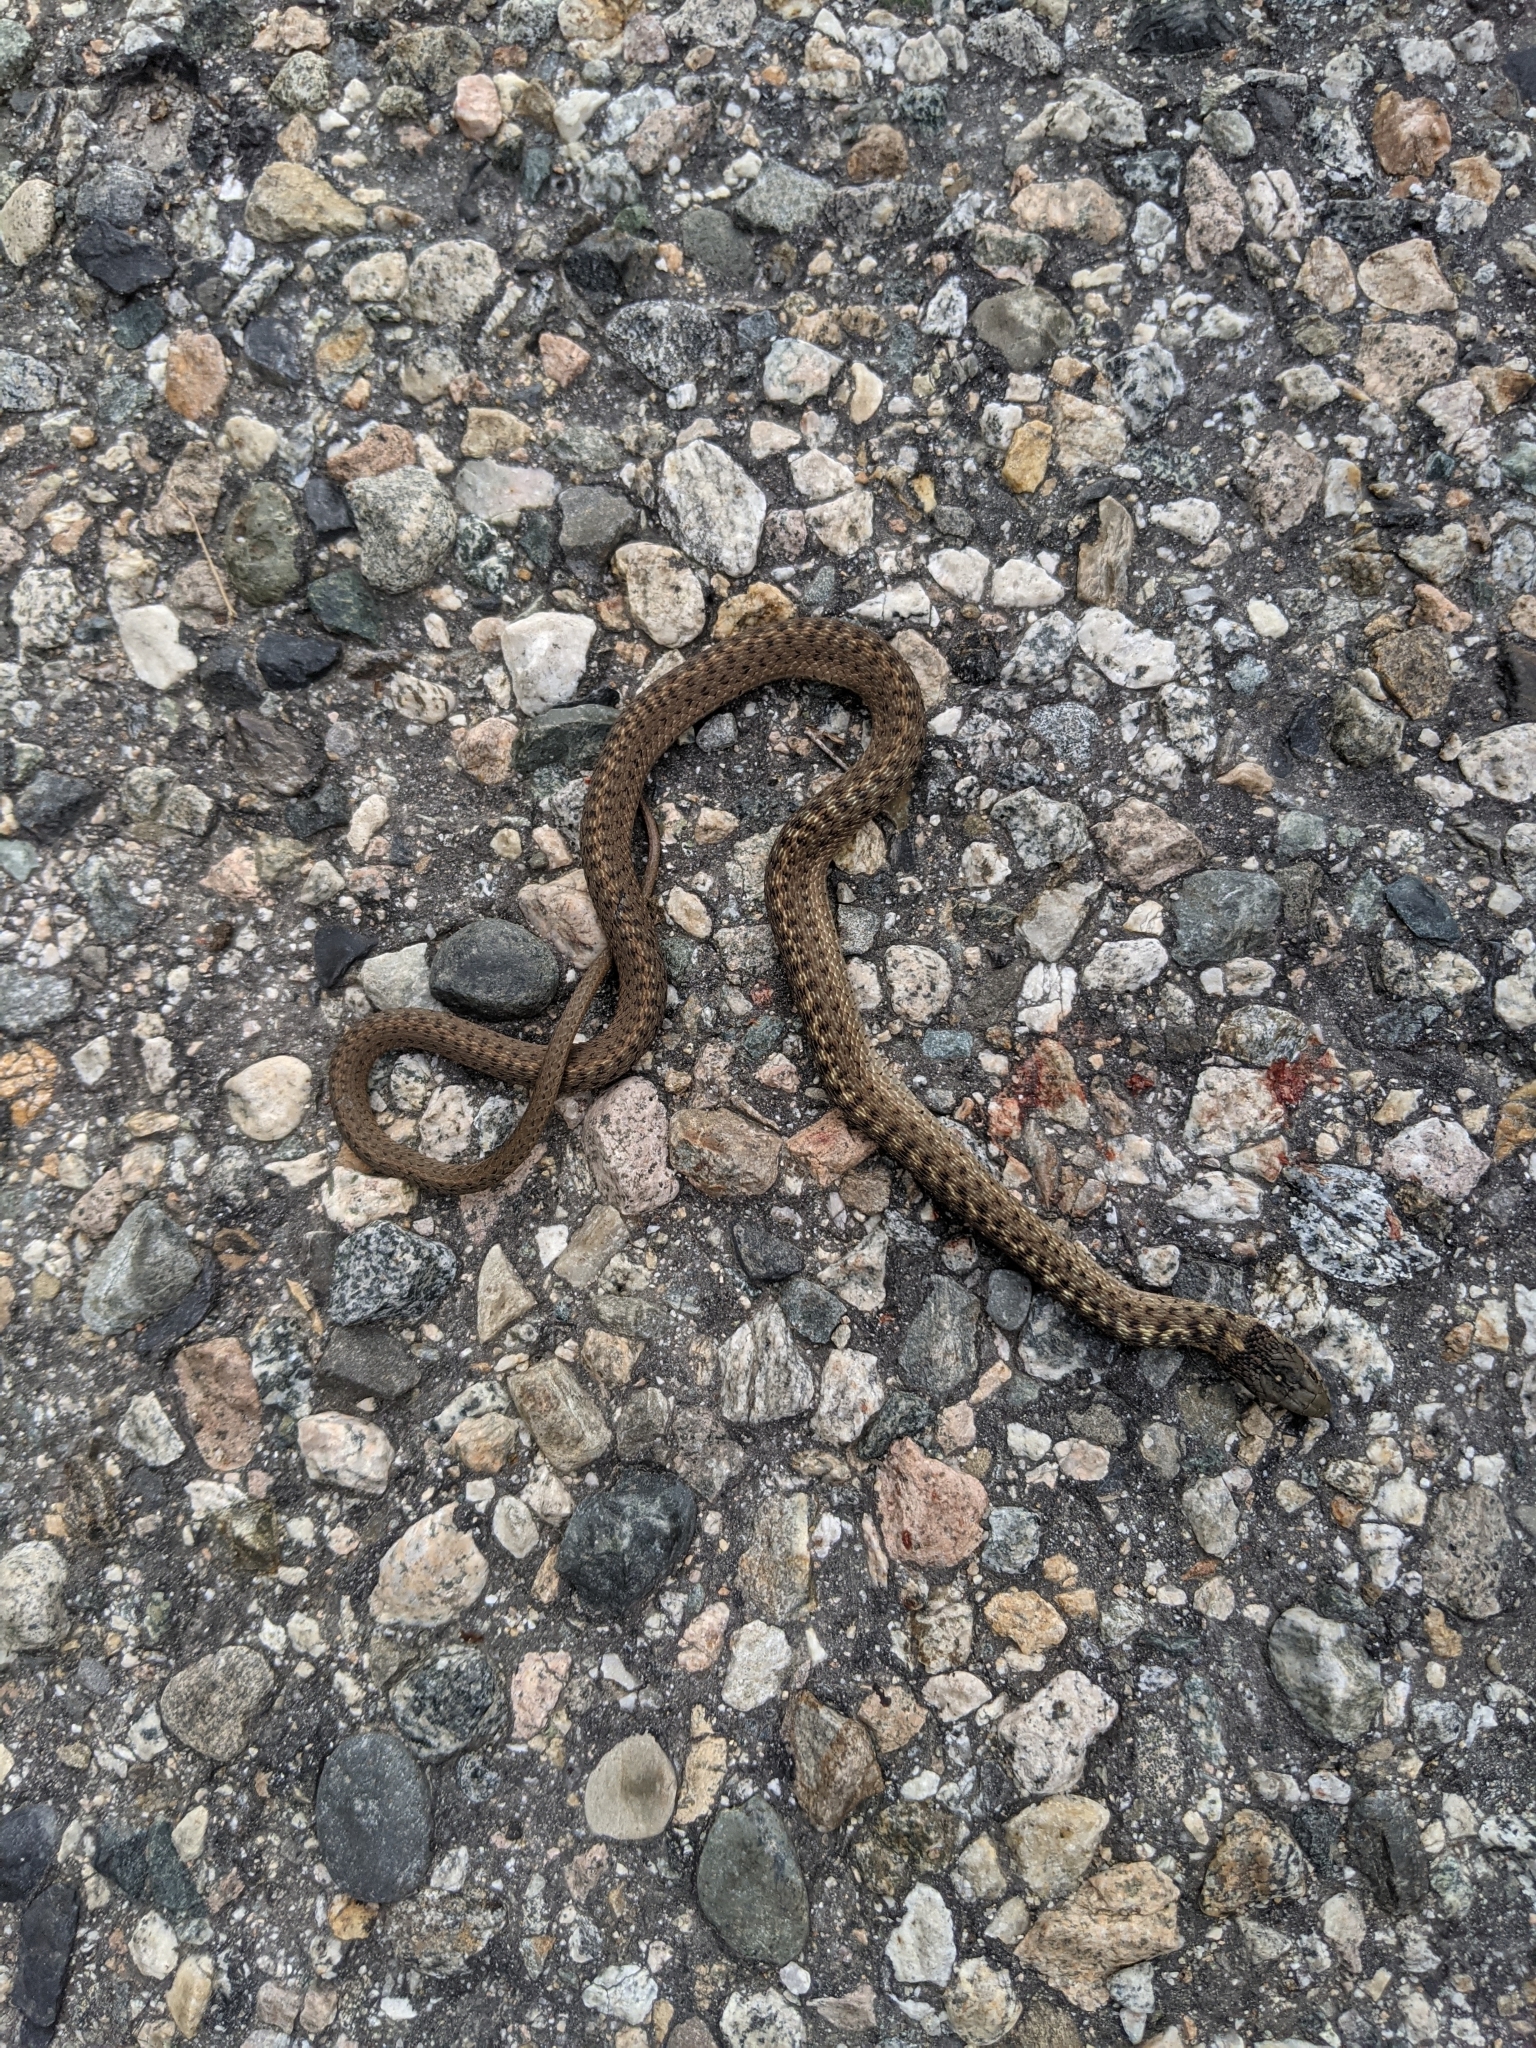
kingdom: Animalia
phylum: Chordata
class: Squamata
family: Colubridae
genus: Thamnophis
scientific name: Thamnophis elegans
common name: Western terrestrial garter snake
